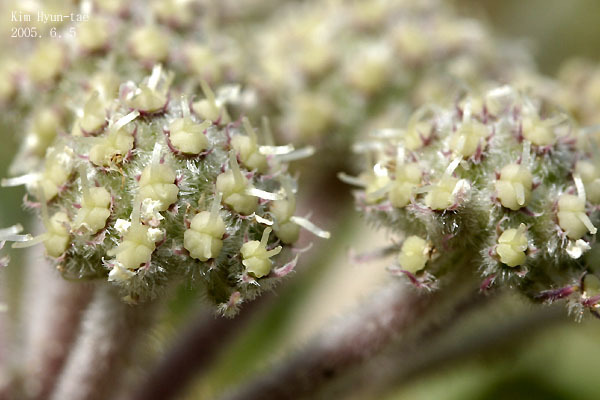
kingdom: Plantae
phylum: Tracheophyta
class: Magnoliopsida
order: Apiales
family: Apiaceae
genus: Glehnia
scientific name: Glehnia littoralis
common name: Beach silvertop
